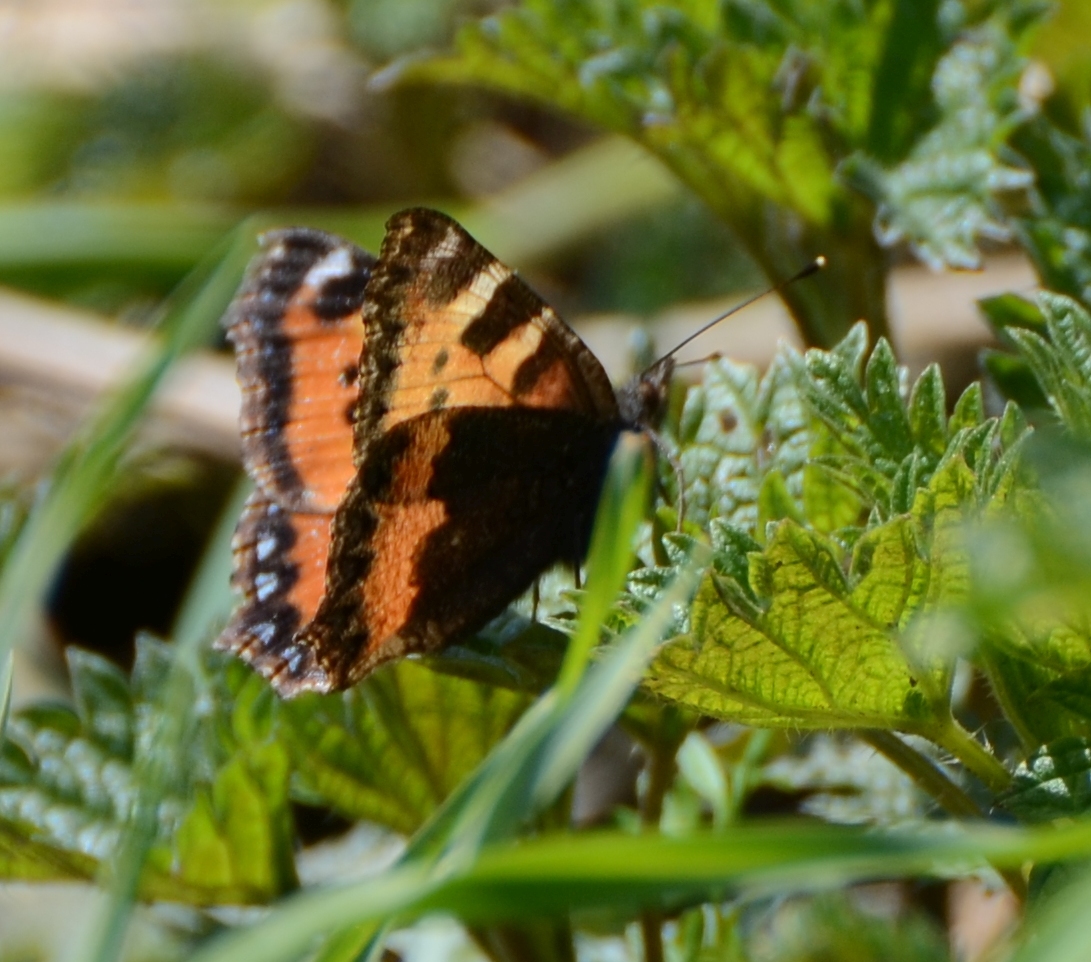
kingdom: Animalia
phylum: Arthropoda
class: Insecta
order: Lepidoptera
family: Nymphalidae
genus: Aglais
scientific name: Aglais urticae
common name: Small tortoiseshell
